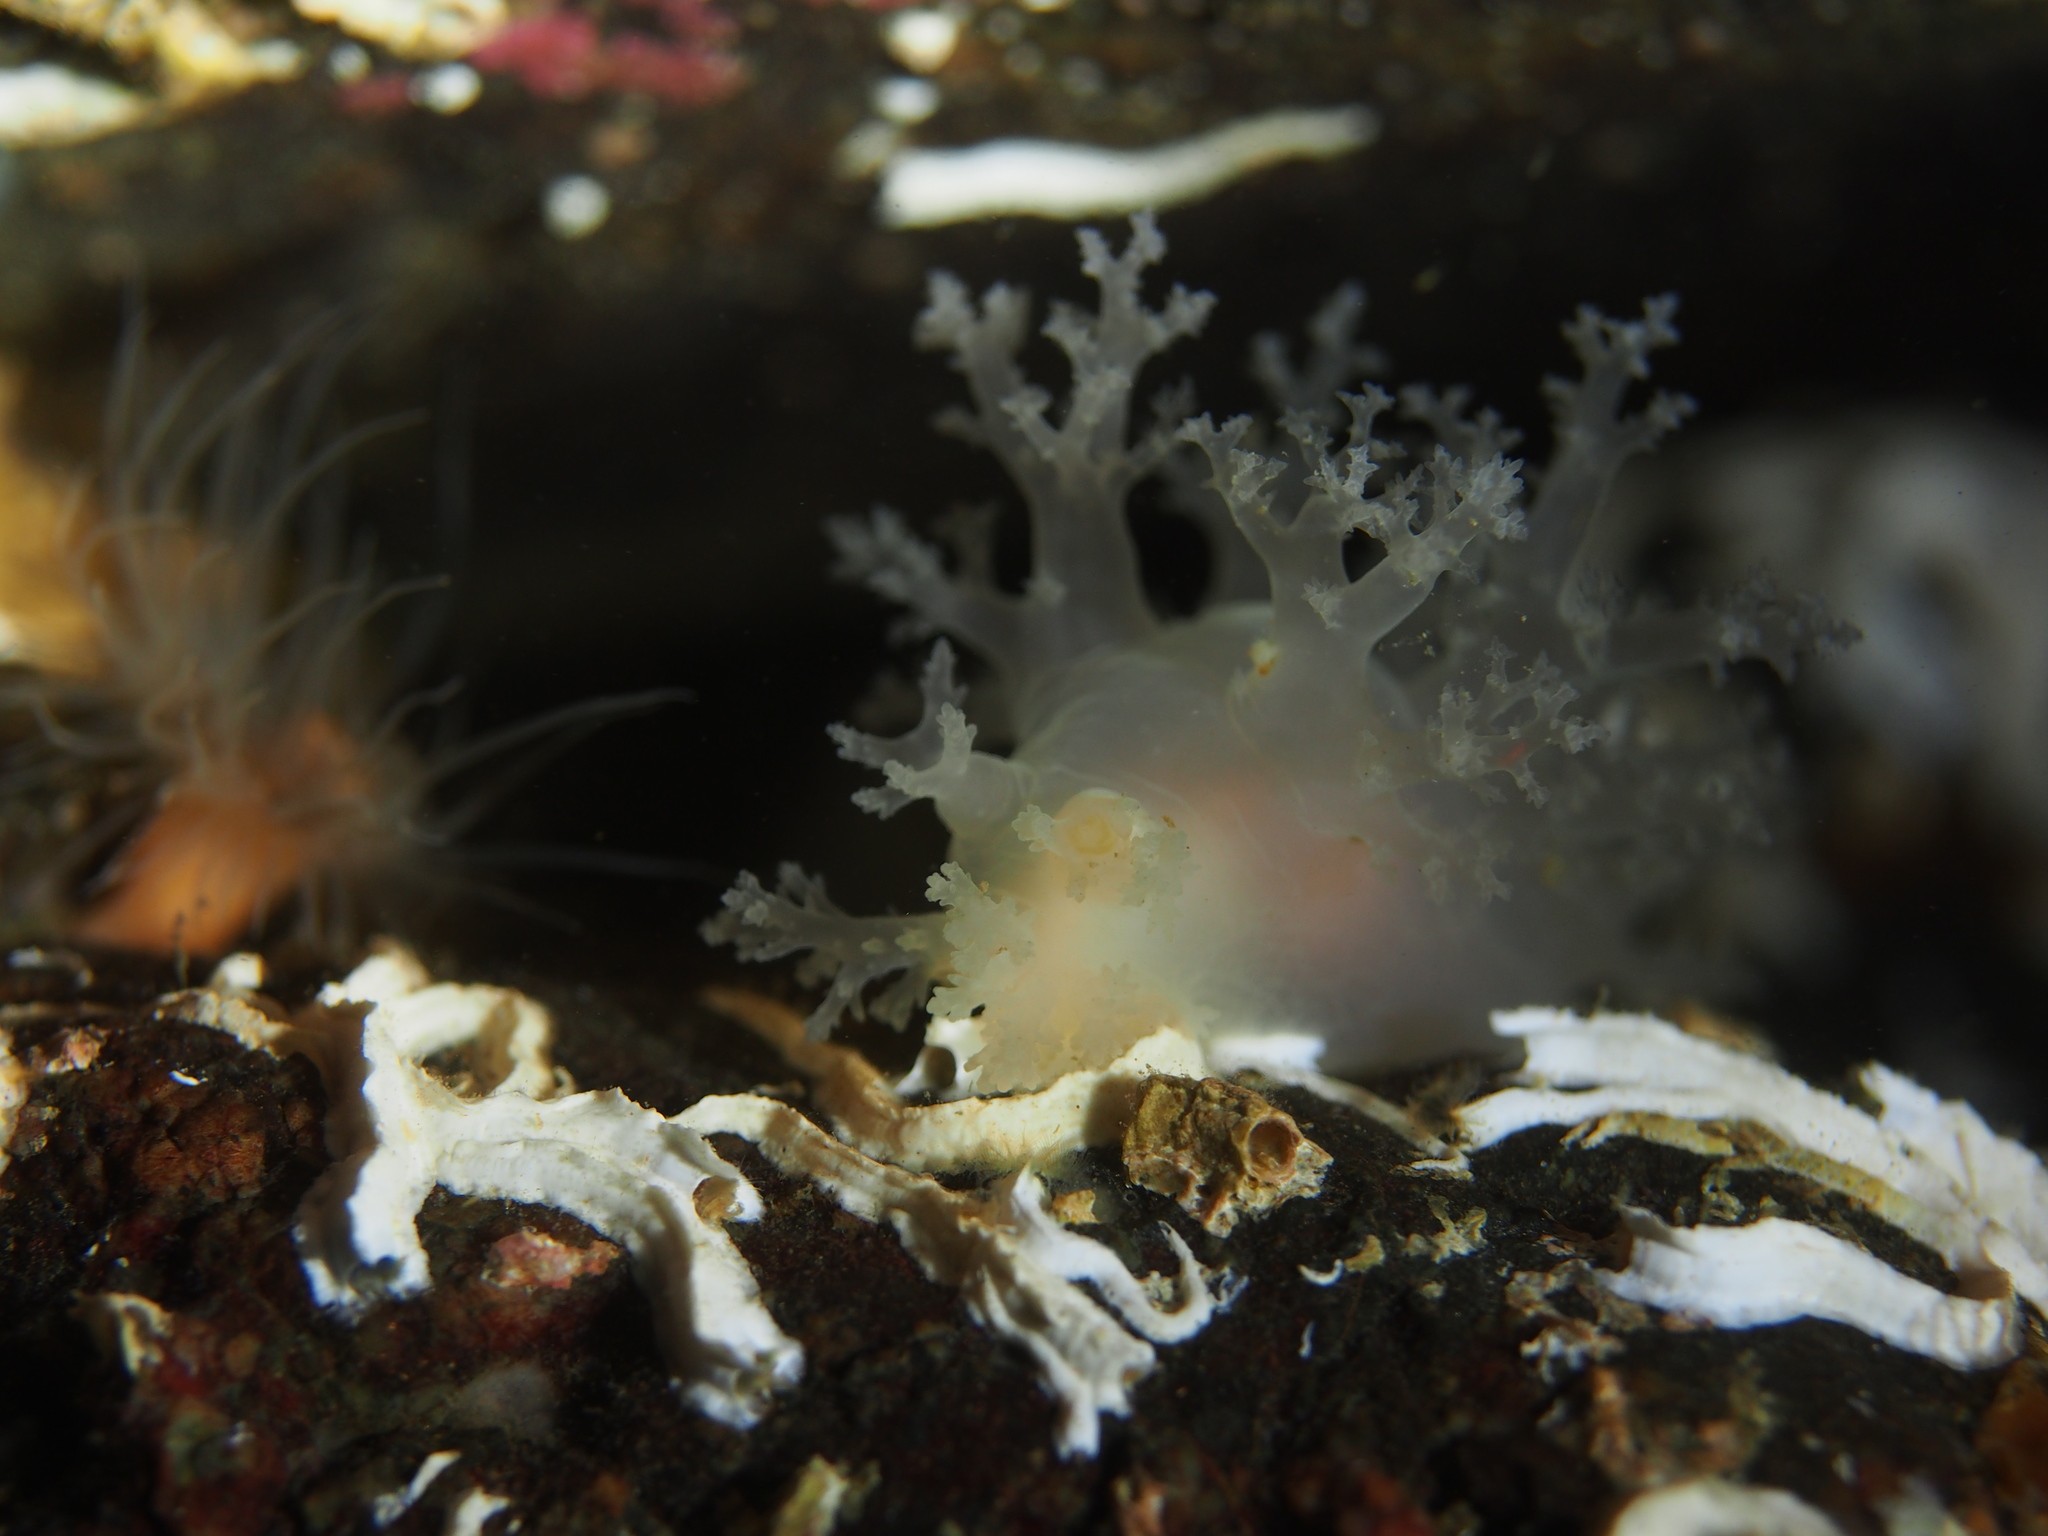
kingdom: Animalia
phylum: Mollusca
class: Gastropoda
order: Nudibranchia
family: Dendronotidae
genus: Dendronotus
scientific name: Dendronotus lacteus
